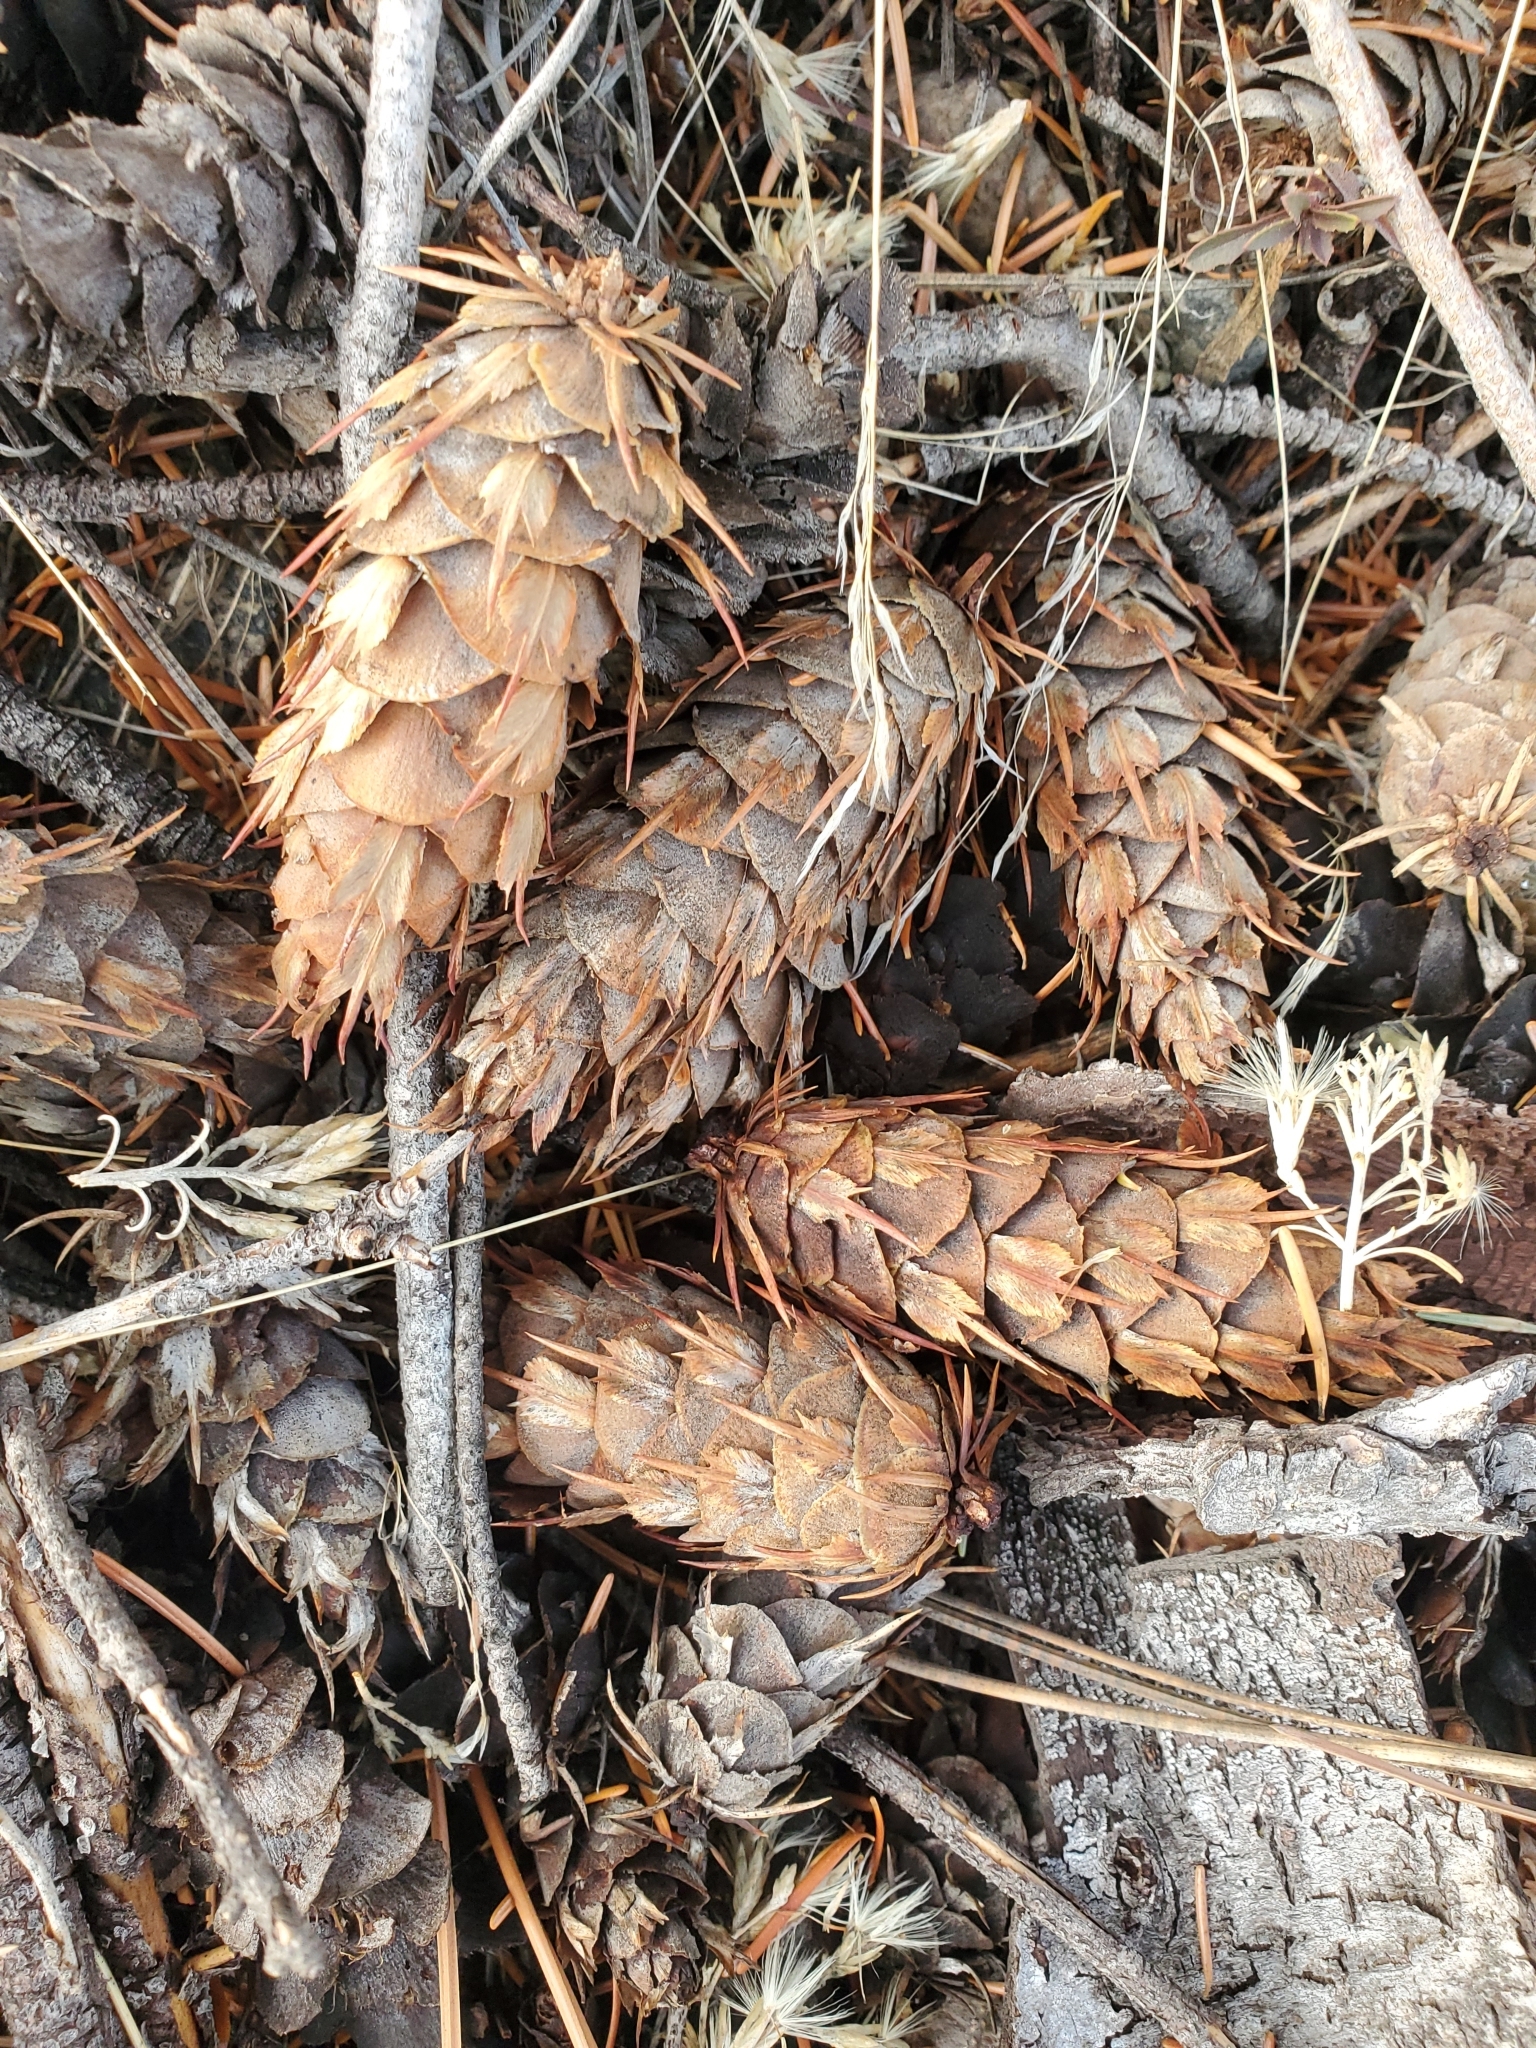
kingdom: Plantae
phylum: Tracheophyta
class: Pinopsida
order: Pinales
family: Pinaceae
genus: Pseudotsuga
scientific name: Pseudotsuga menziesii
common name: Douglas fir
